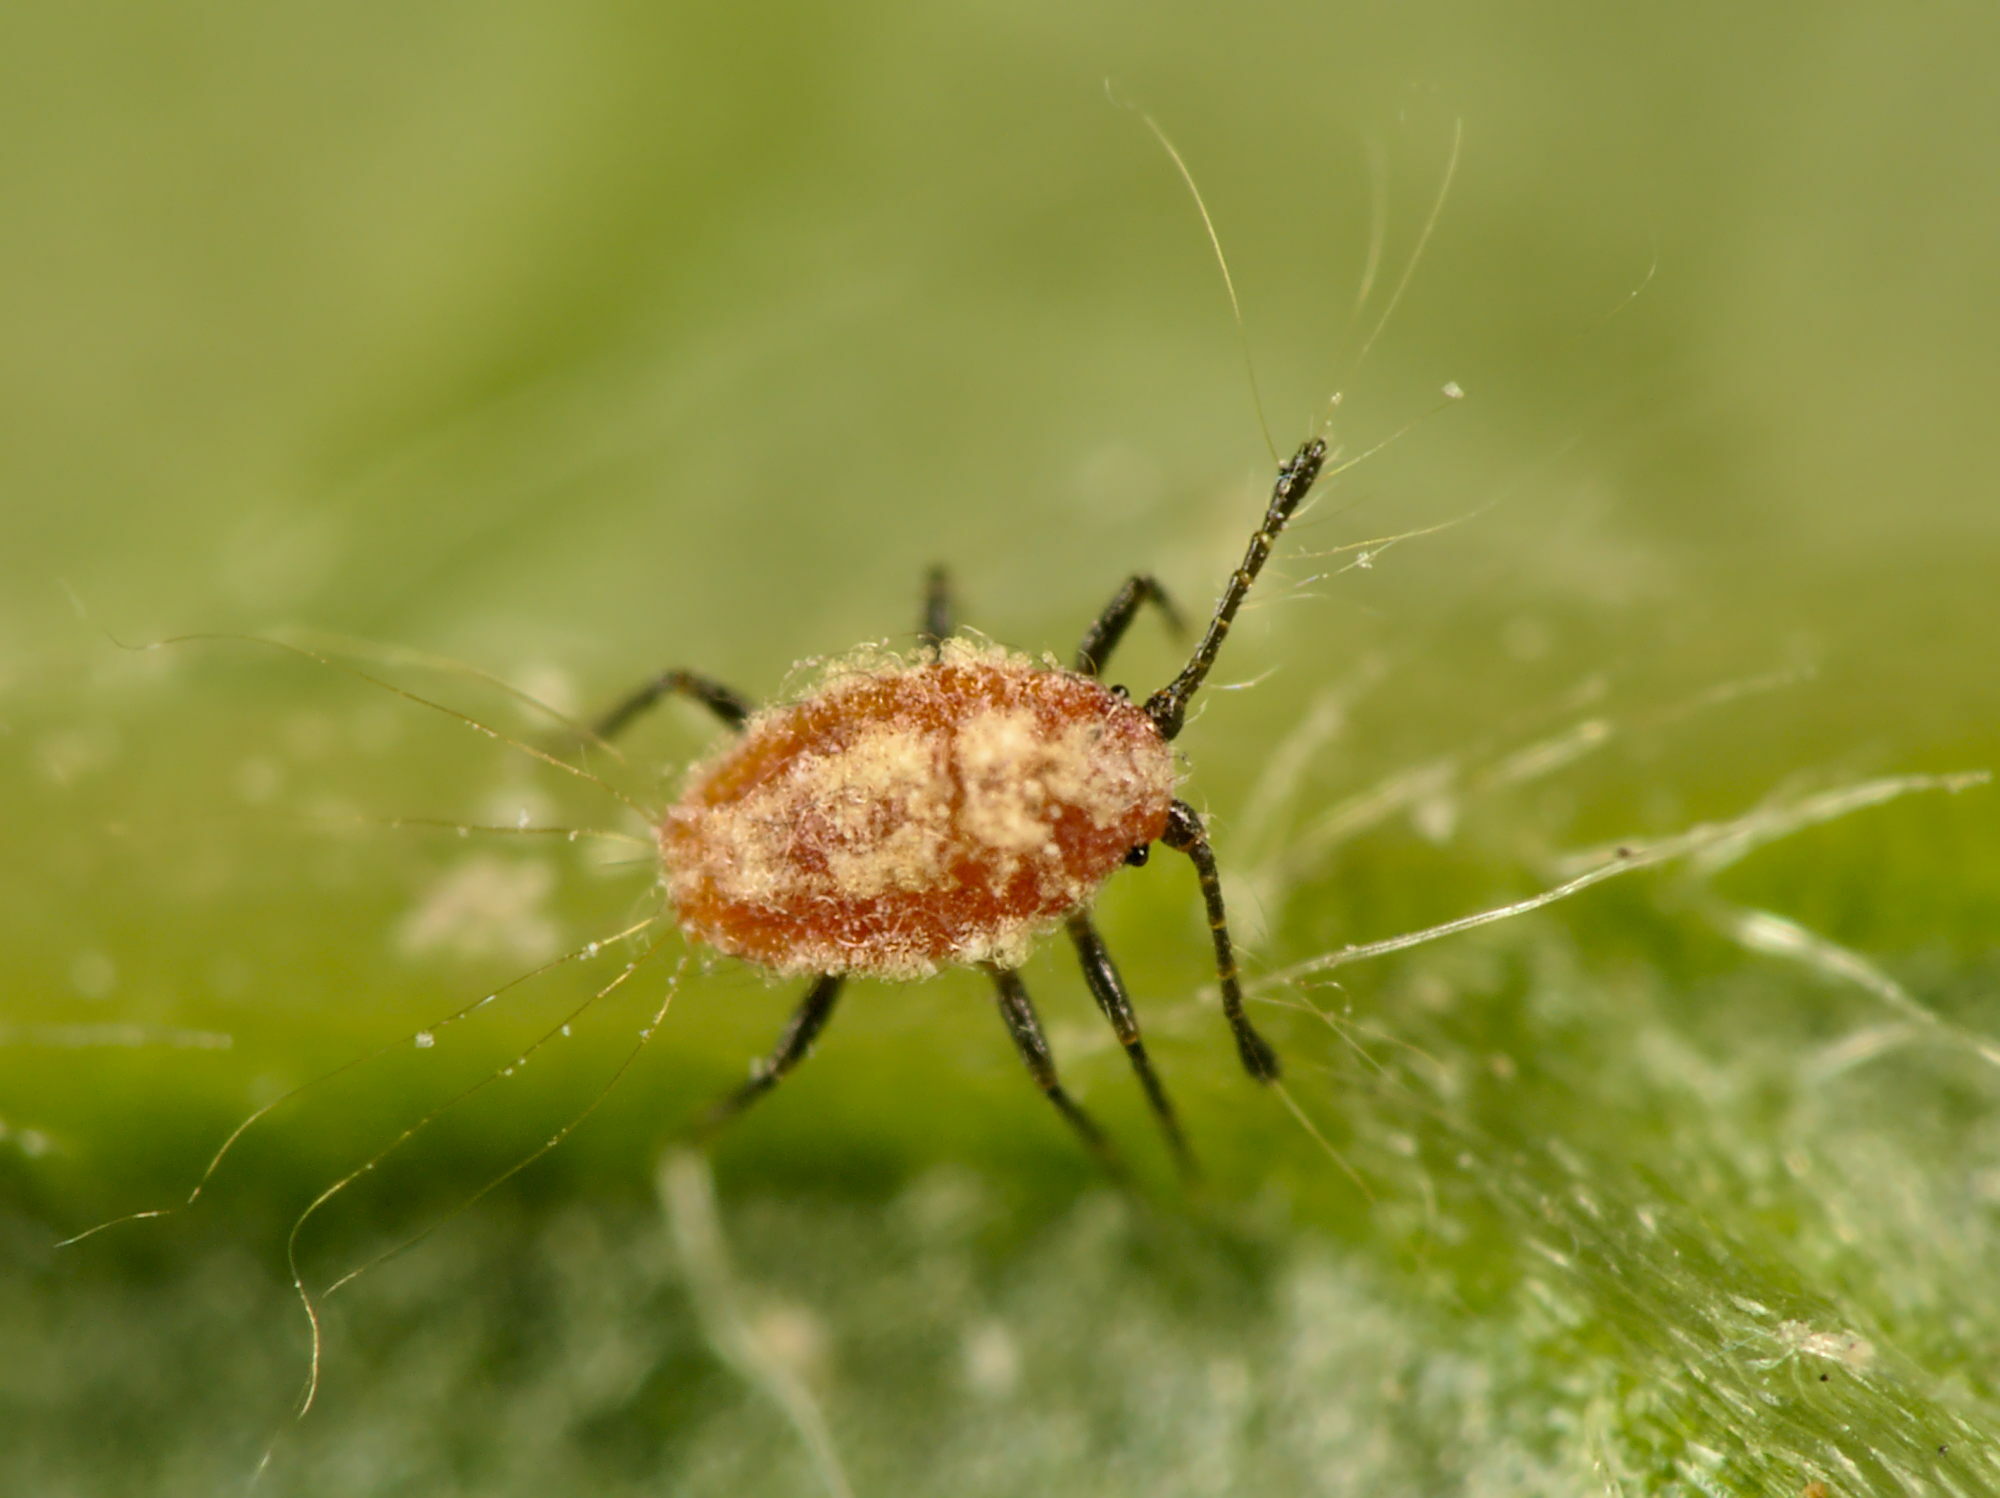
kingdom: Animalia
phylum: Arthropoda
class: Insecta
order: Hemiptera
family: Margarodidae
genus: Icerya
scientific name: Icerya purchasi
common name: Cottony cushion scale
